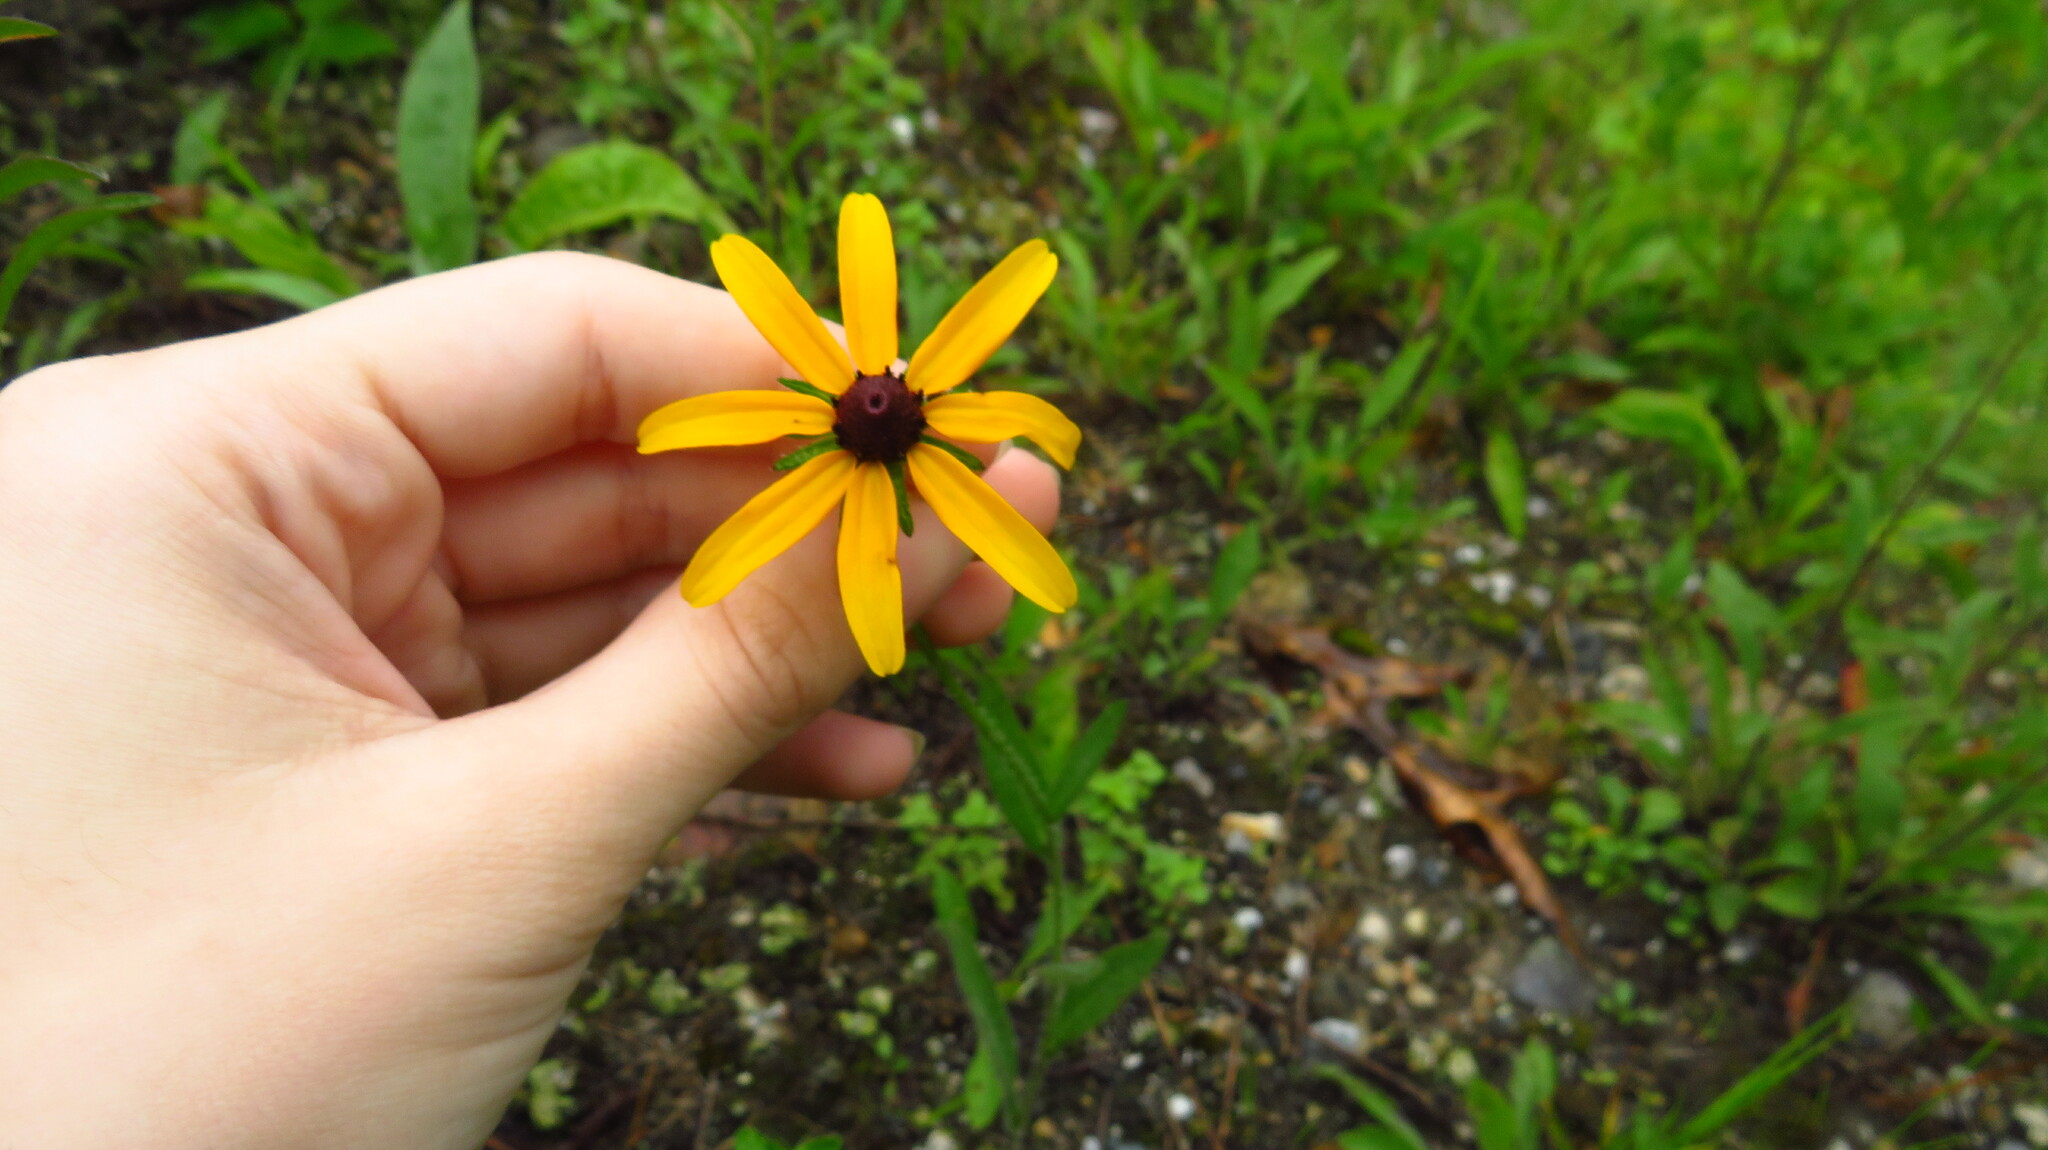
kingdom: Plantae
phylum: Tracheophyta
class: Magnoliopsida
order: Asterales
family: Asteraceae
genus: Rudbeckia
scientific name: Rudbeckia hirta
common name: Black-eyed-susan
